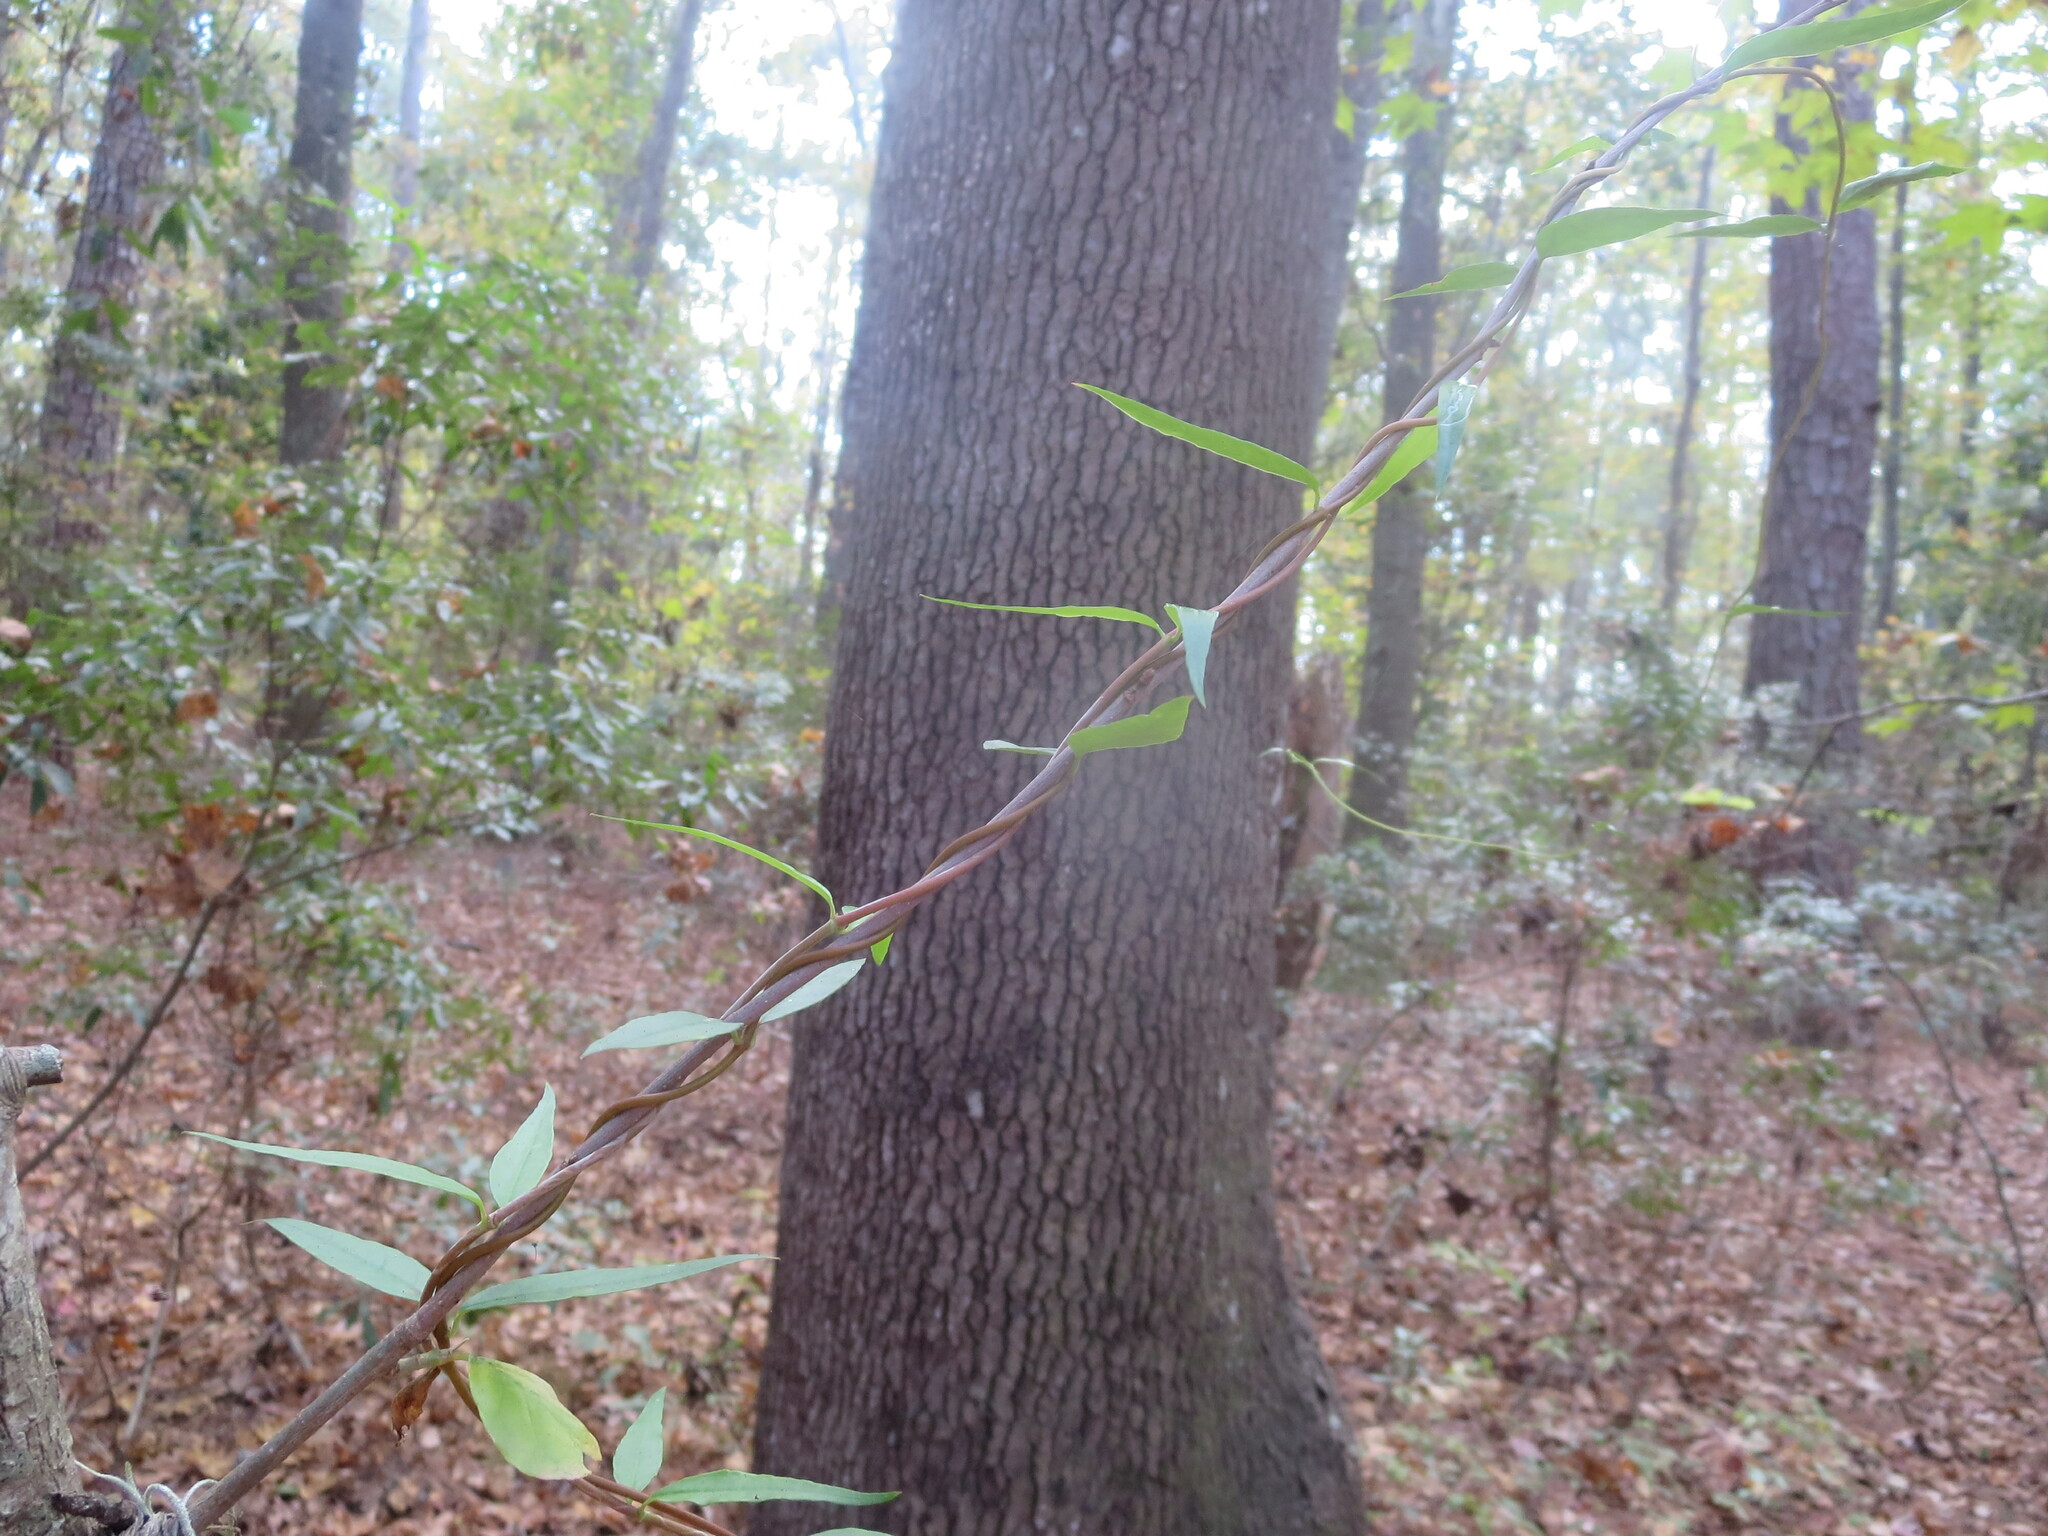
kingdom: Plantae
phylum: Tracheophyta
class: Magnoliopsida
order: Gentianales
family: Gelsemiaceae
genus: Gelsemium
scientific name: Gelsemium sempervirens
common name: Carolina-jasmine
